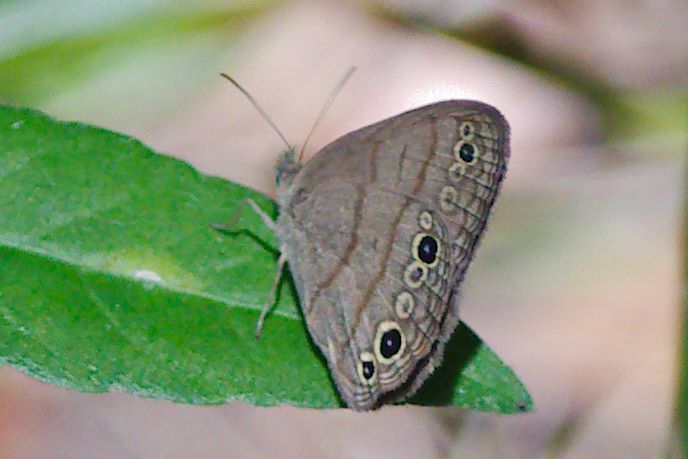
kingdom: Animalia
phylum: Arthropoda
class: Insecta
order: Lepidoptera
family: Nymphalidae
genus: Hermeuptychia
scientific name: Hermeuptychia hermes
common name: Hermes satyr
